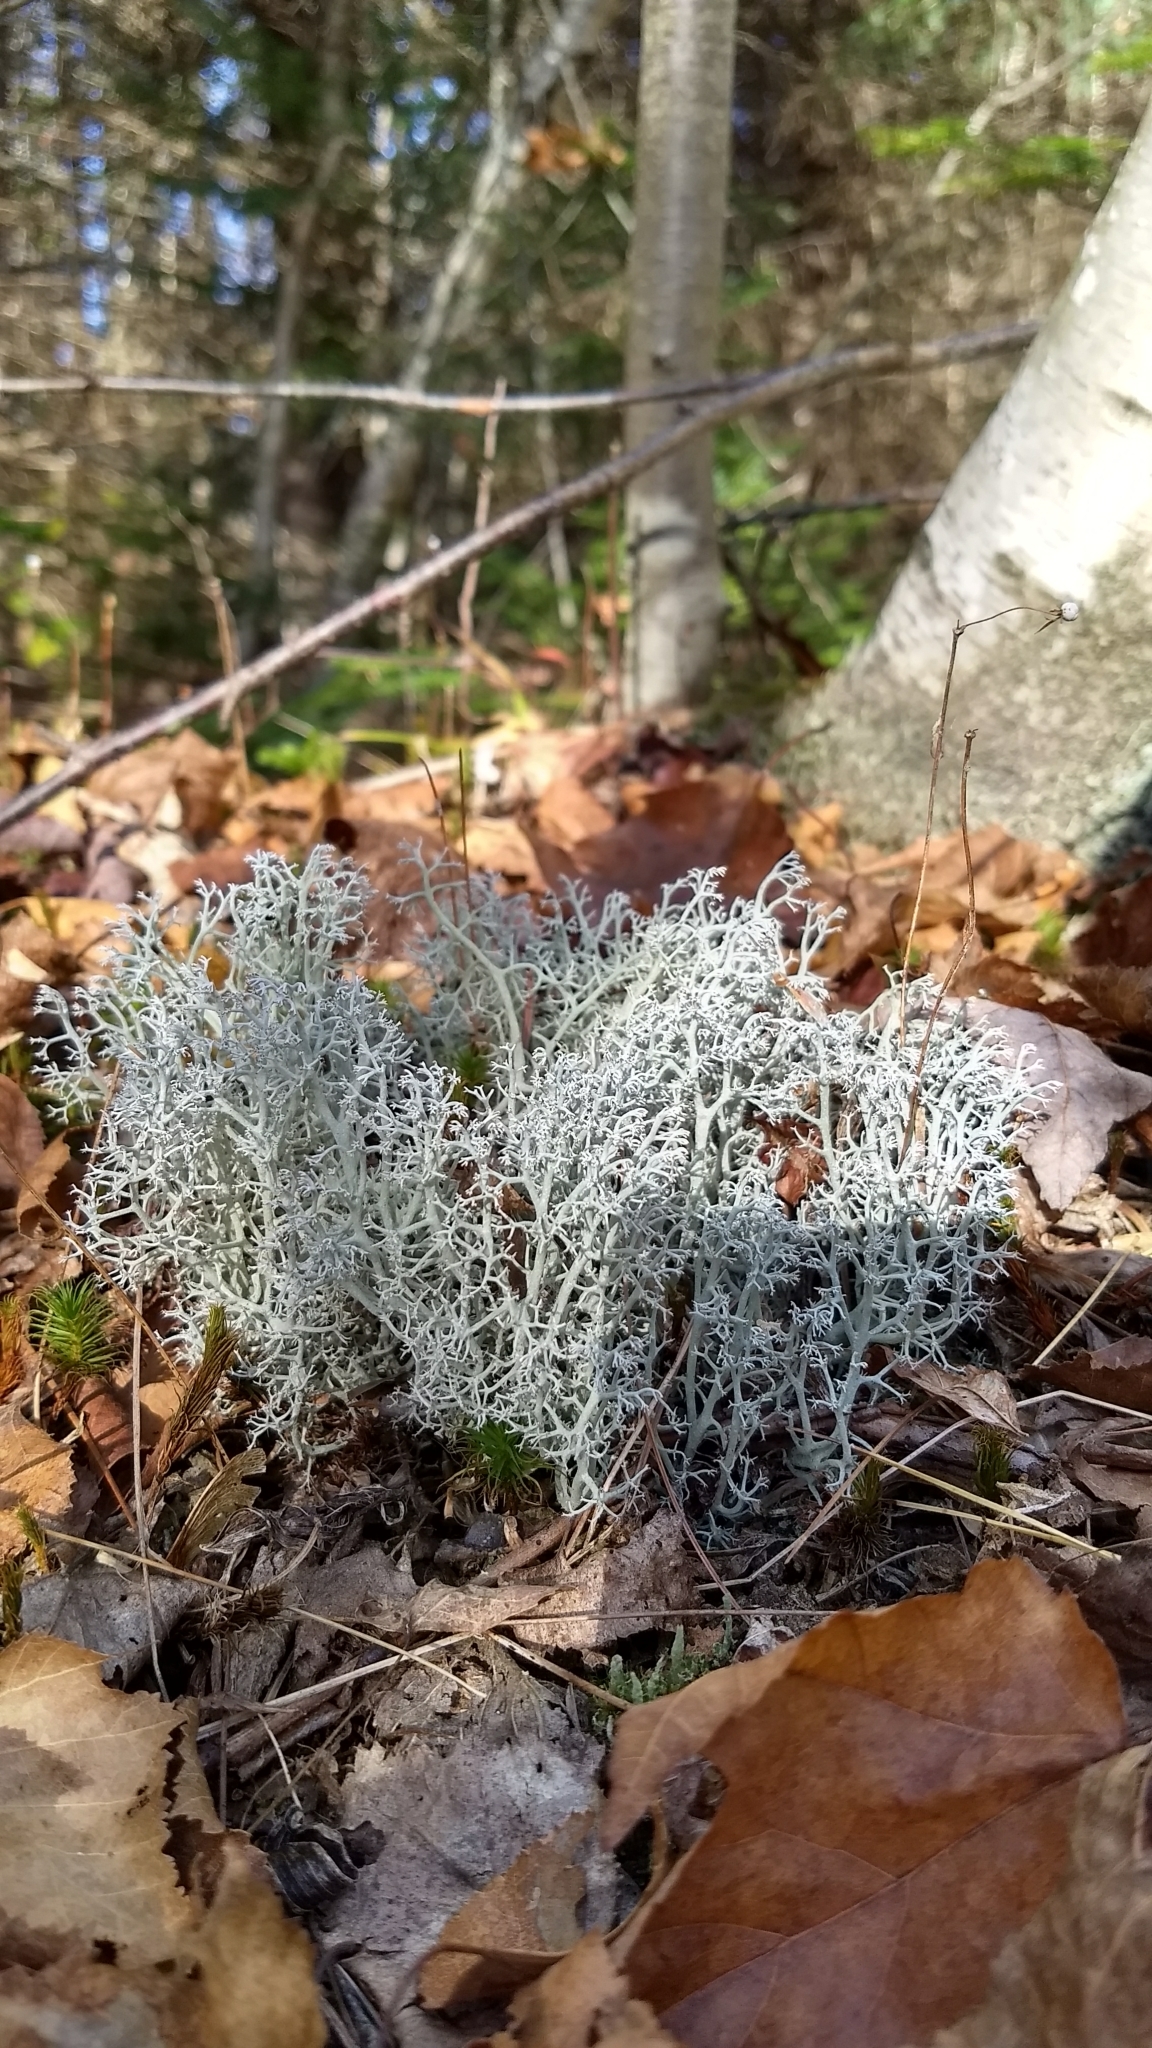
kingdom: Fungi
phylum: Ascomycota
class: Lecanoromycetes
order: Lecanorales
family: Cladoniaceae
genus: Cladonia
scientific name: Cladonia rangiferina
